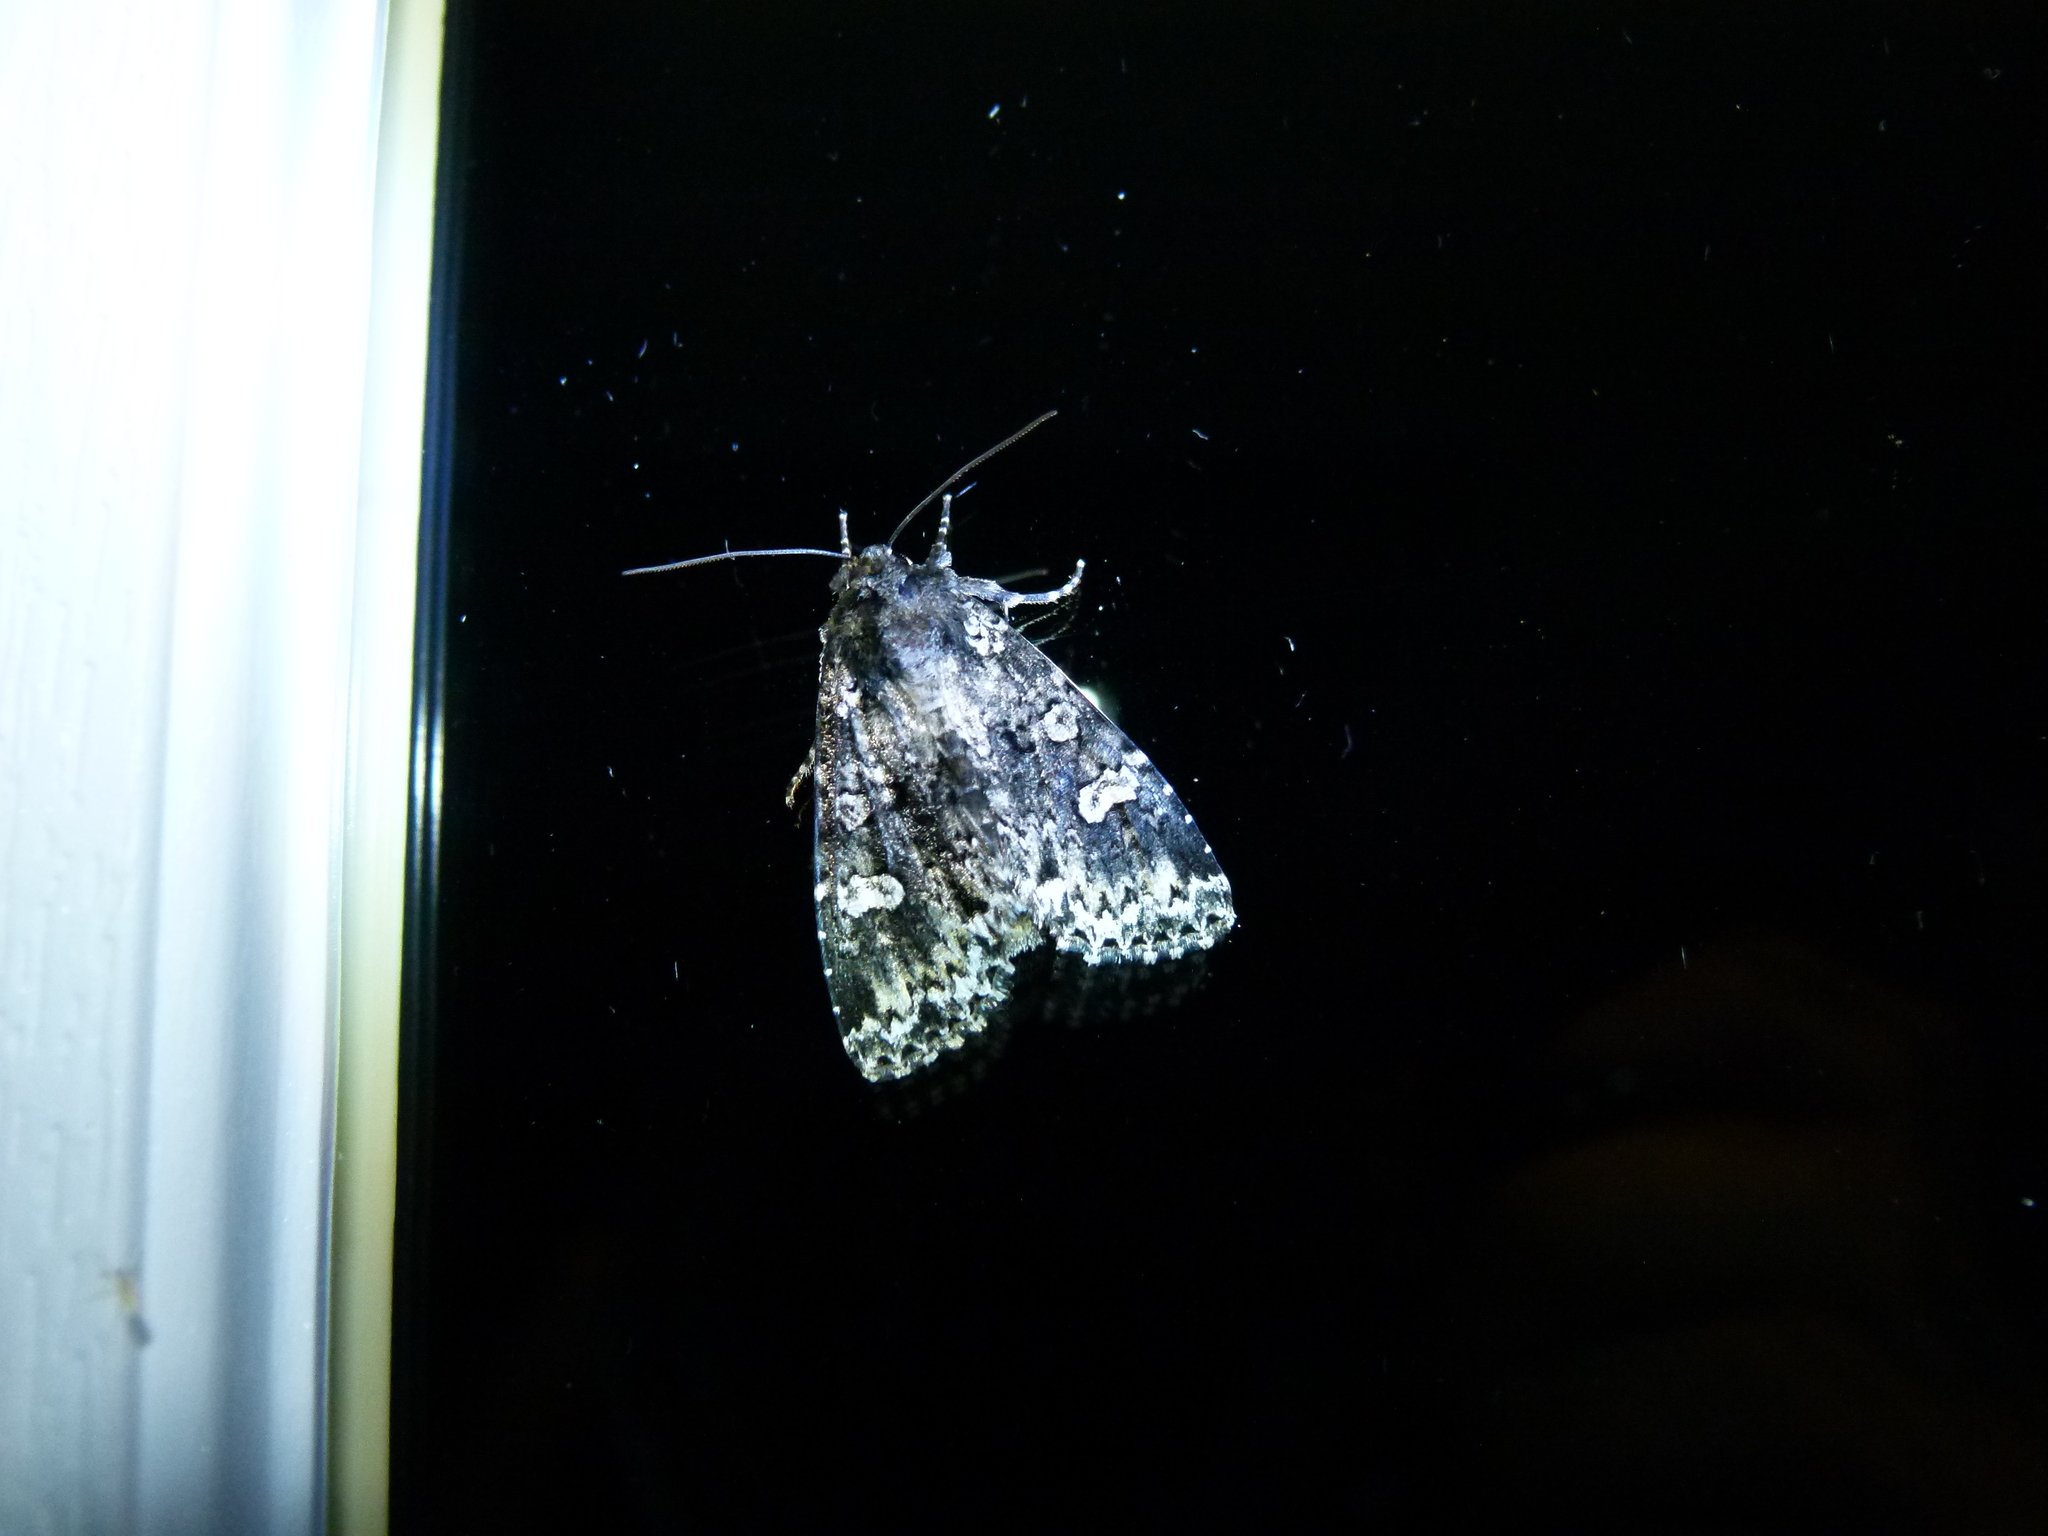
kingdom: Animalia
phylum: Arthropoda
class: Insecta
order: Lepidoptera
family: Noctuidae
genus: Melanchra
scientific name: Melanchra adjuncta
